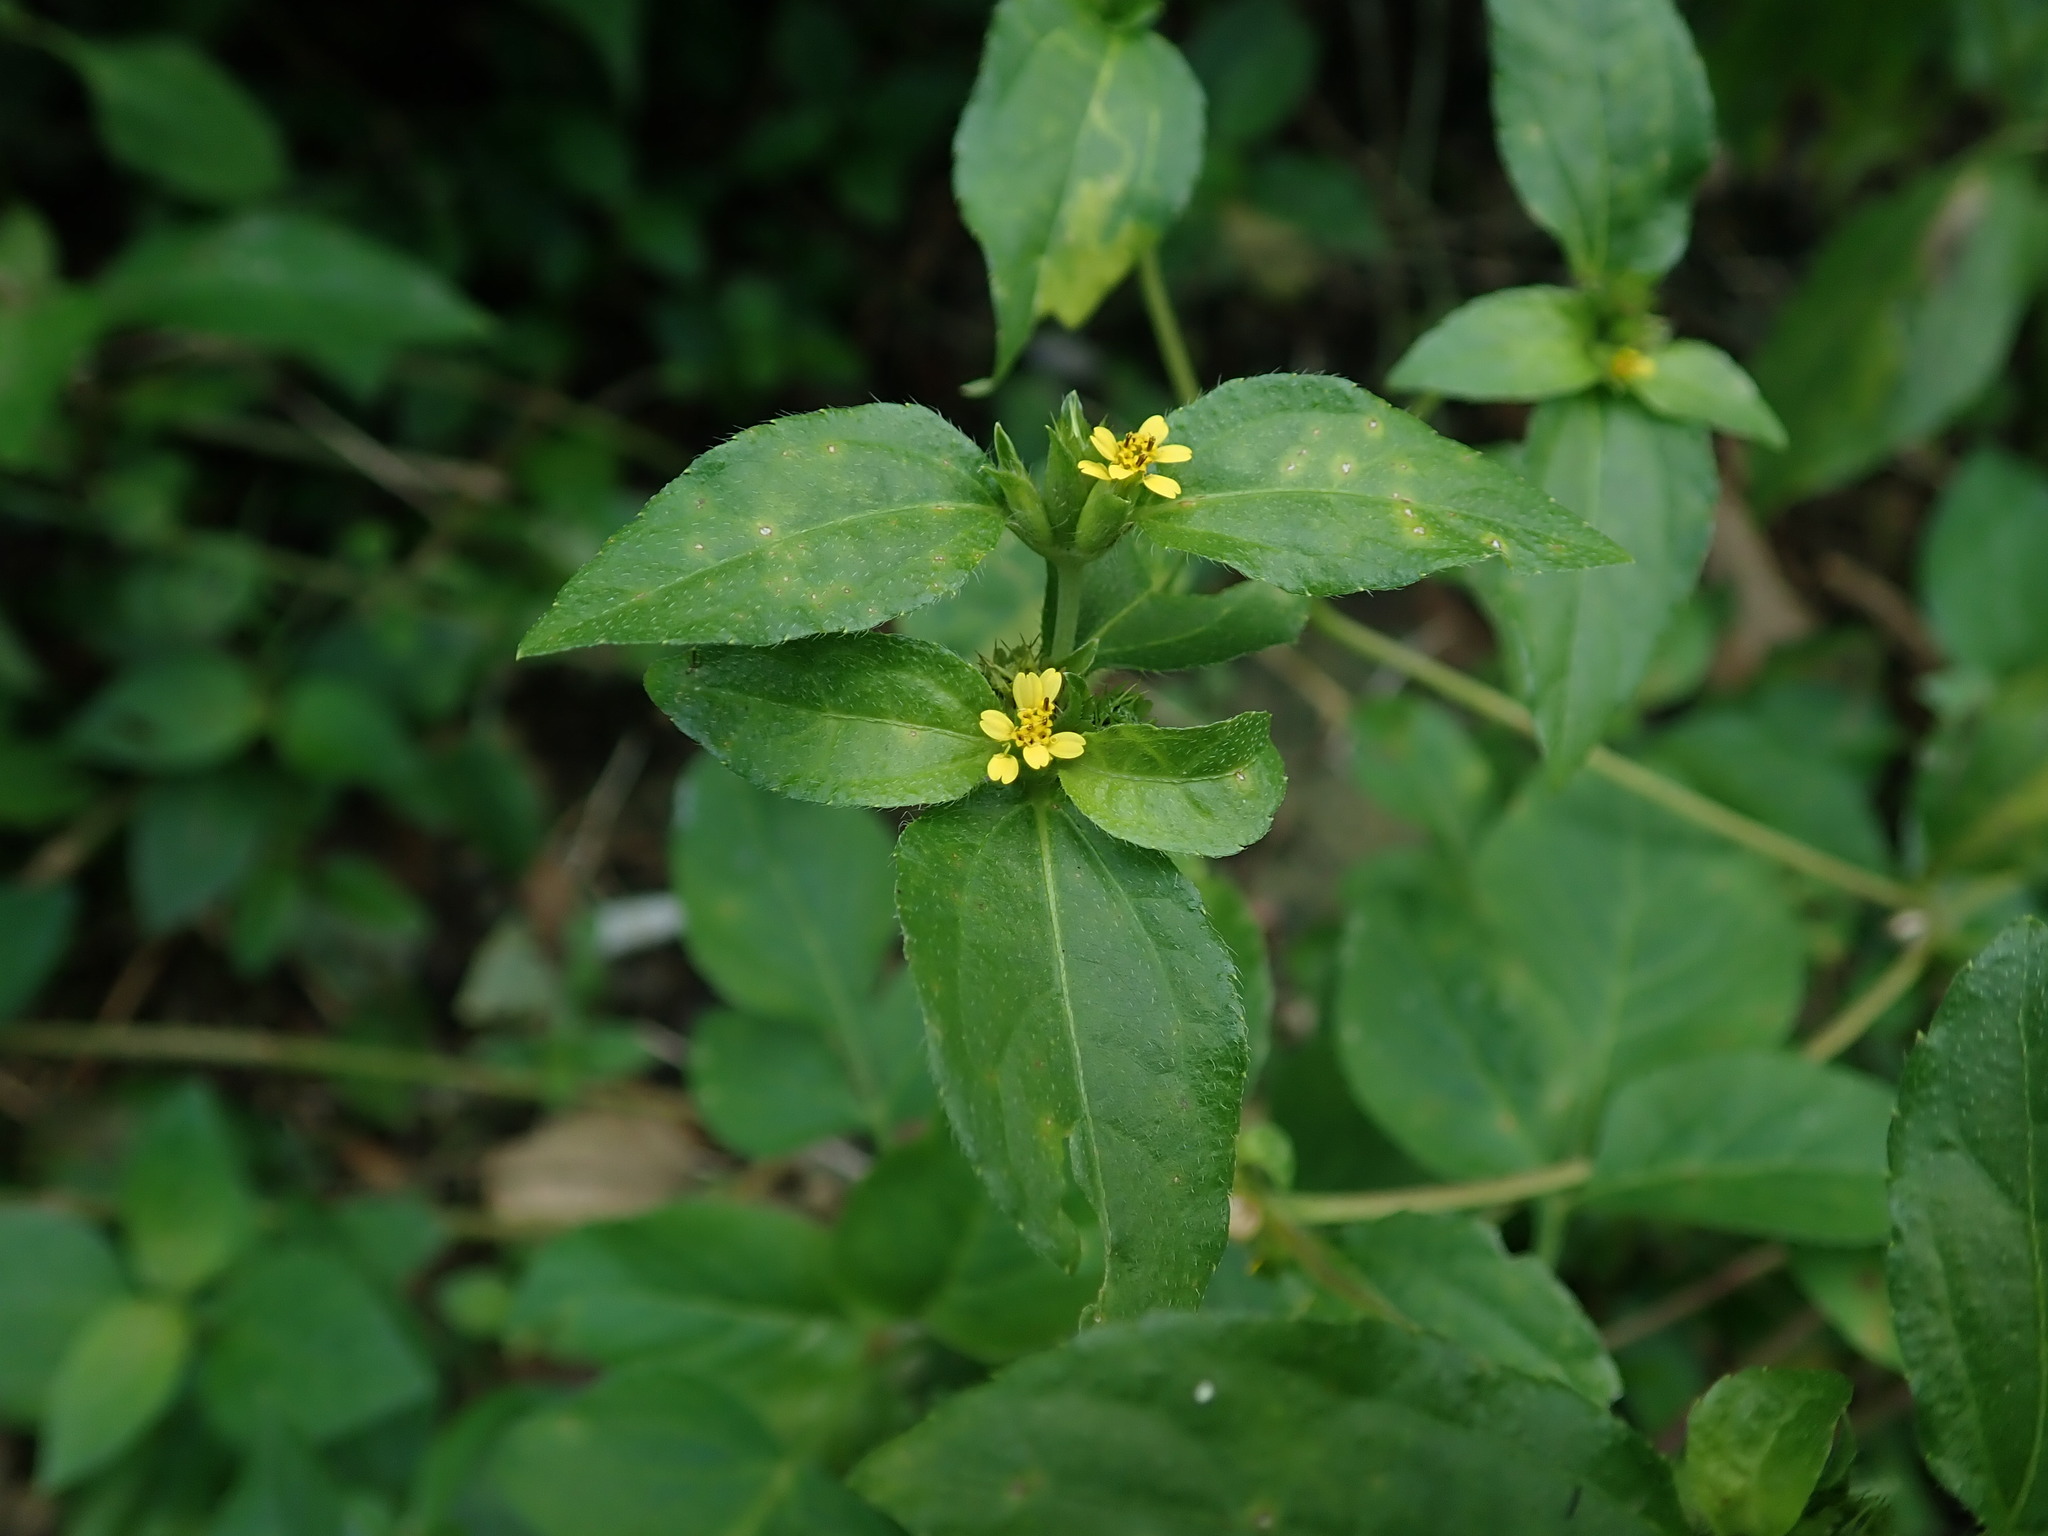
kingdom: Plantae
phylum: Tracheophyta
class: Magnoliopsida
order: Asterales
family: Asteraceae
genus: Synedrella
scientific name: Synedrella nodiflora
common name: Nodeweed
